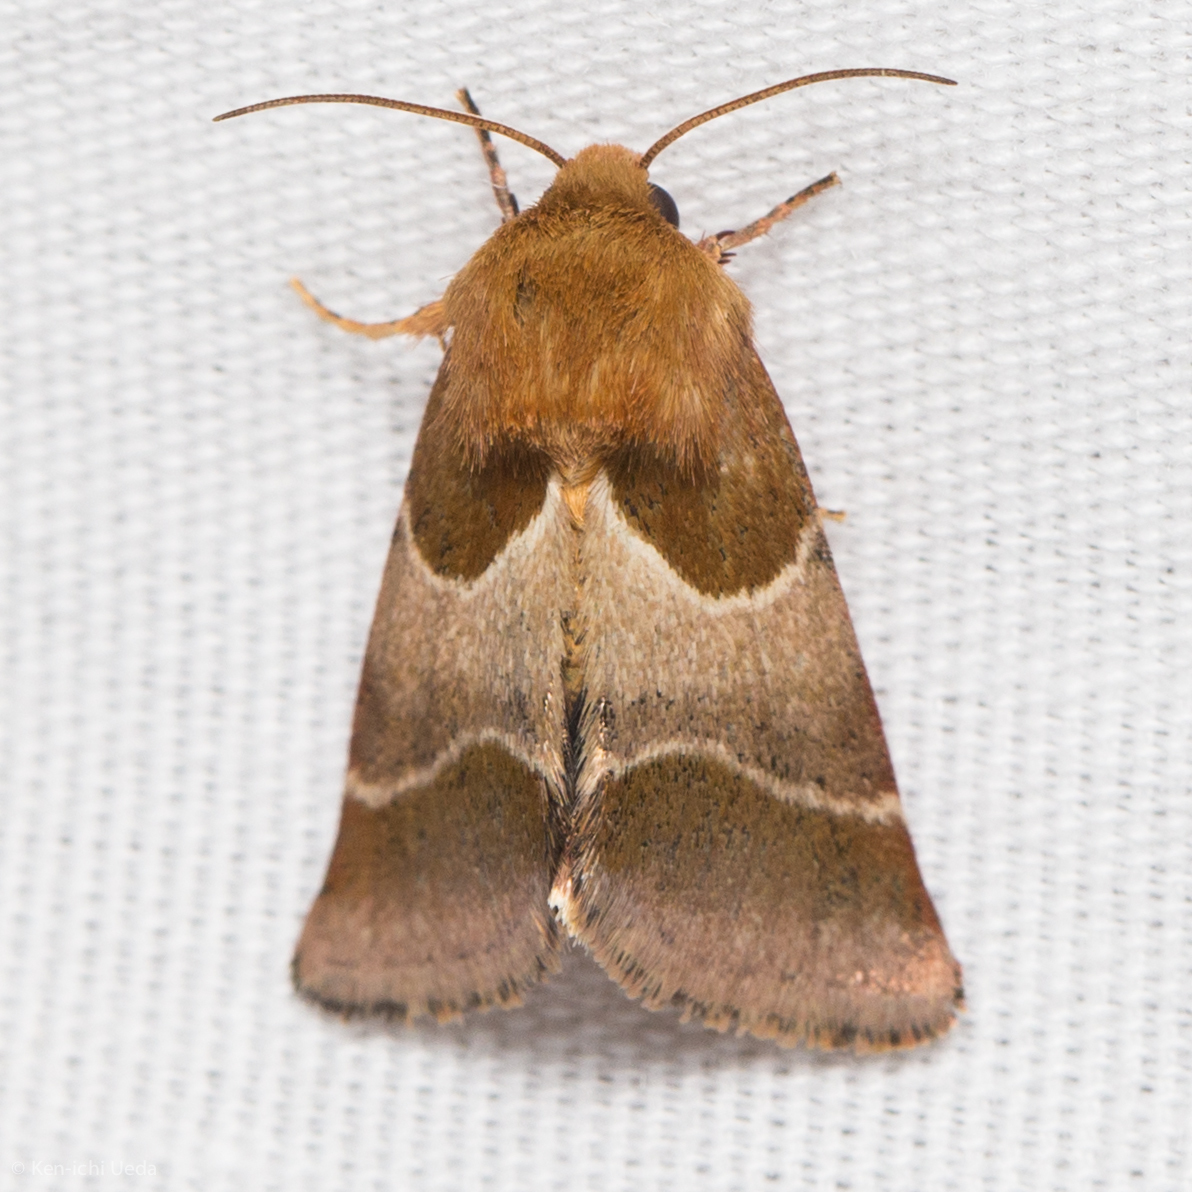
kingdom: Animalia
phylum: Arthropoda
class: Insecta
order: Lepidoptera
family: Noctuidae
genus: Schinia
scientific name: Schinia arcigera
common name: Arcigera flower moth
